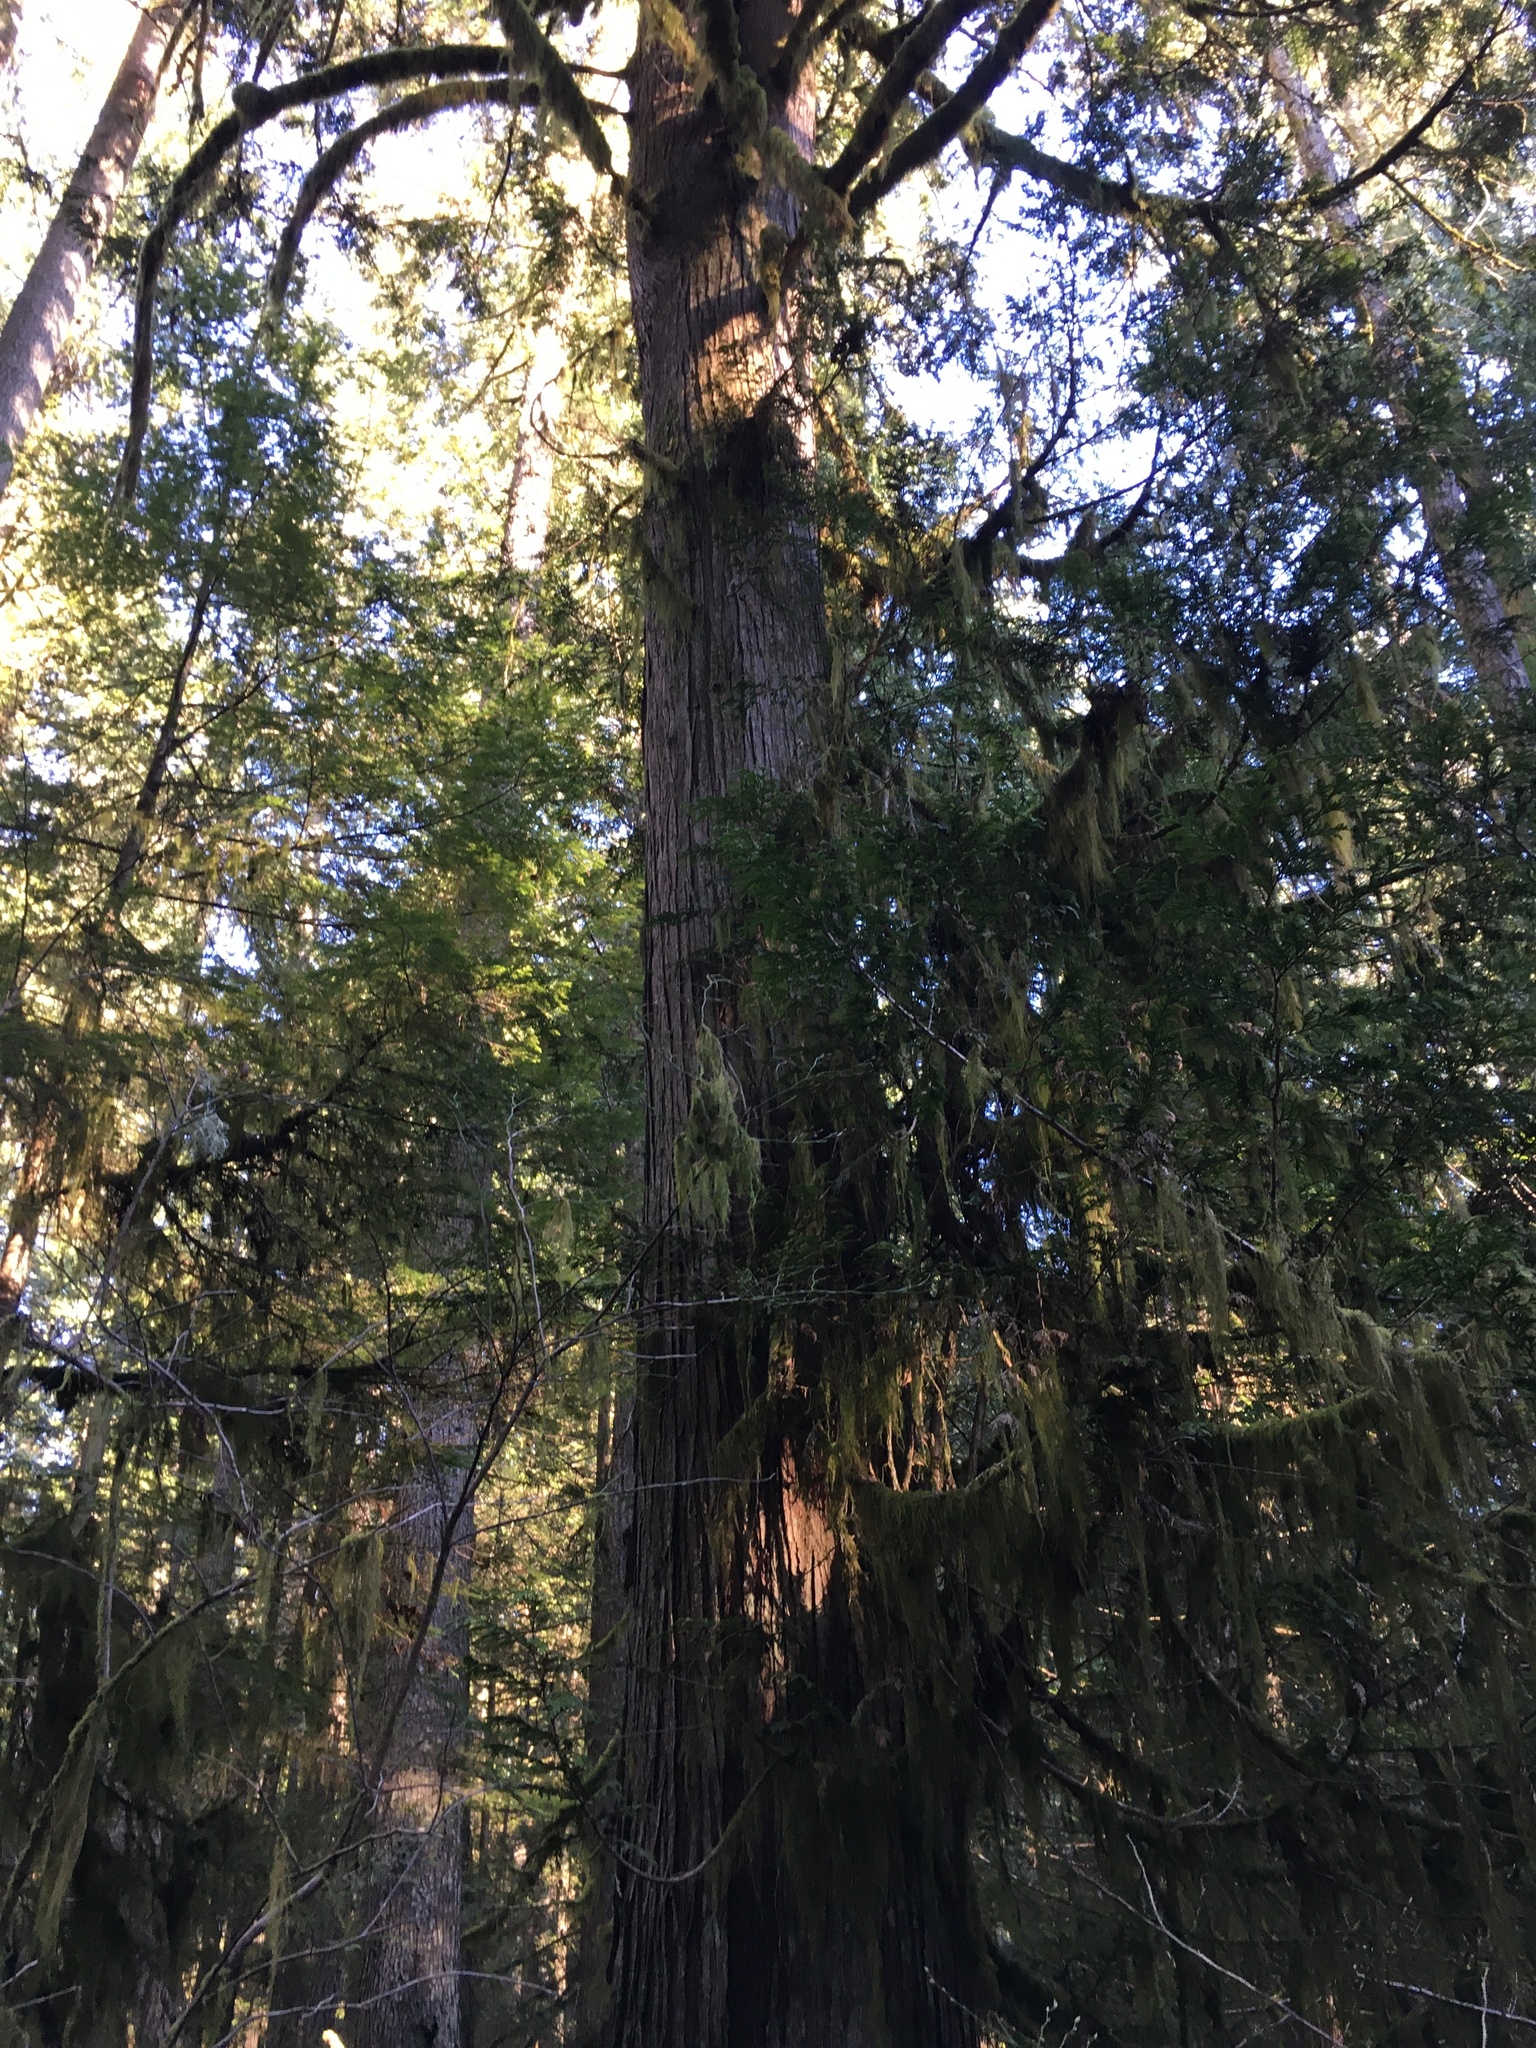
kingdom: Plantae
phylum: Tracheophyta
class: Pinopsida
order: Pinales
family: Cupressaceae
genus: Thuja
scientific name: Thuja plicata
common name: Western red-cedar
